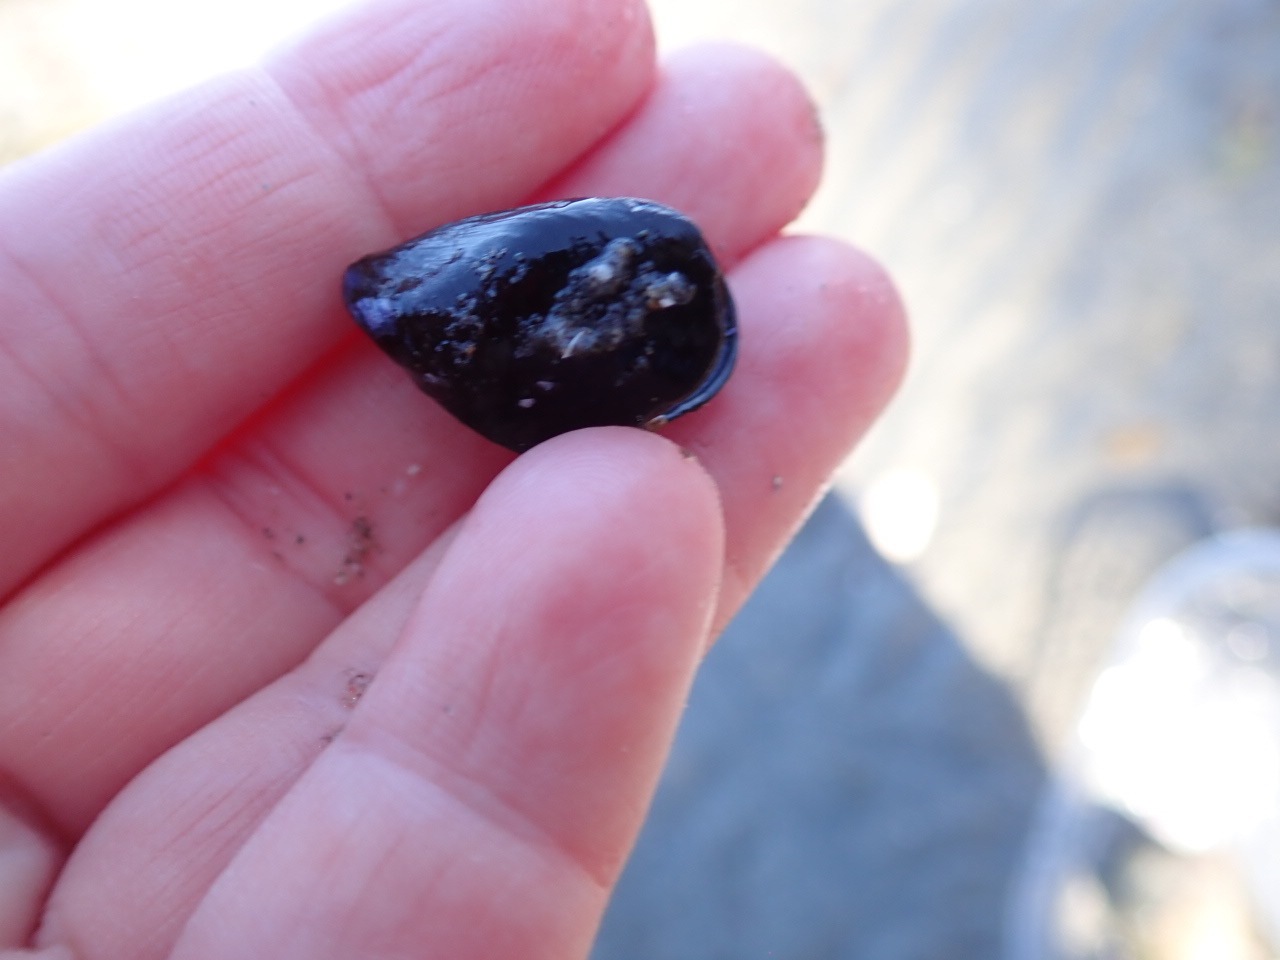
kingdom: Animalia
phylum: Mollusca
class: Bivalvia
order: Mytilida
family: Mytilidae
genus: Mytilus
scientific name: Mytilus edulis
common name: Blue mussel
